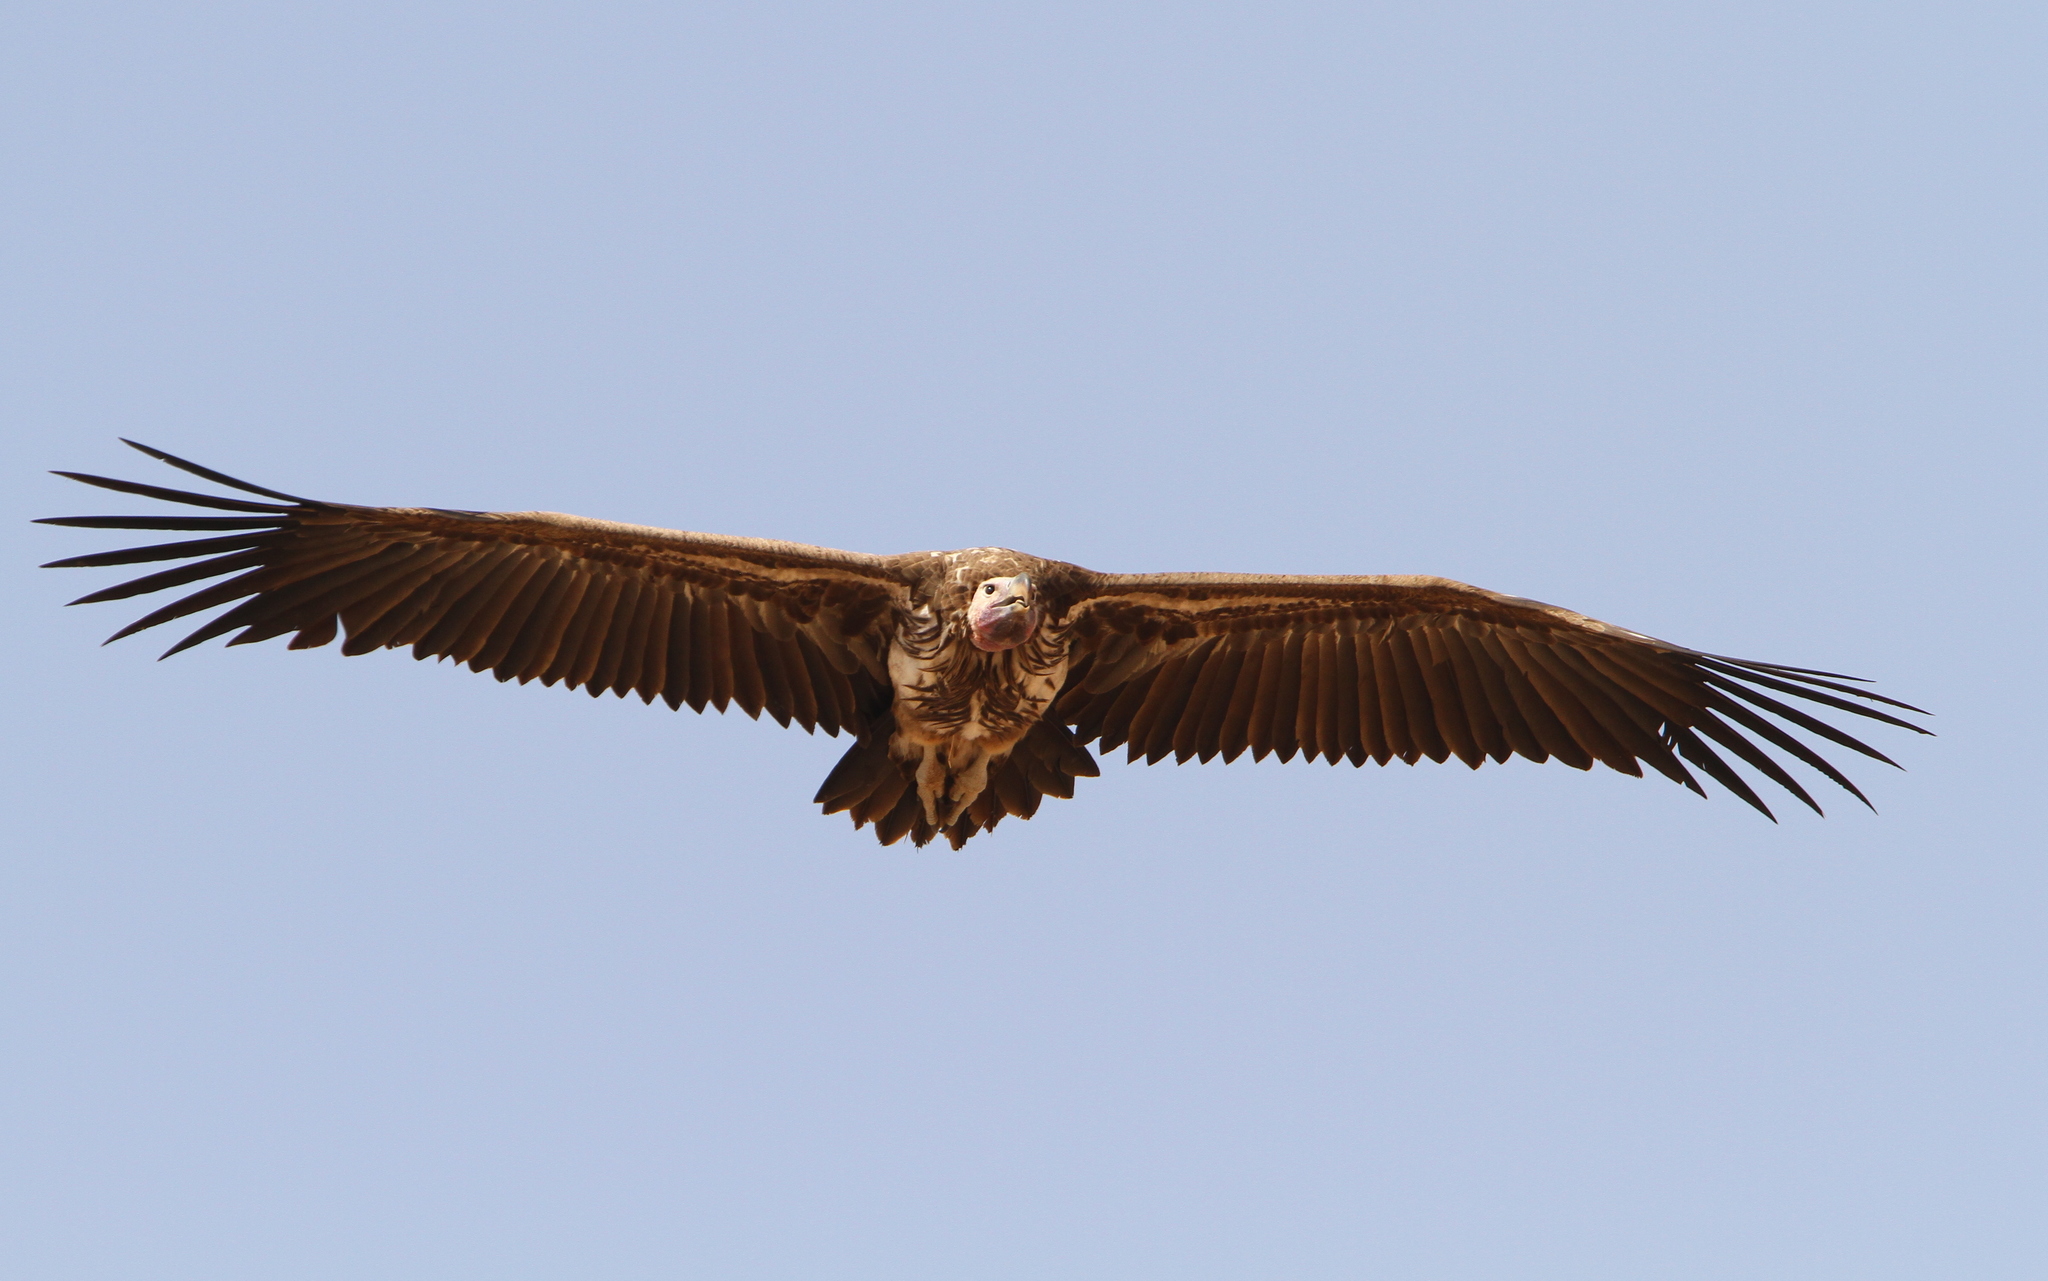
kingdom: Animalia
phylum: Chordata
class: Aves
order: Accipitriformes
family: Accipitridae
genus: Torgos
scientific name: Torgos tracheliotos
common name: Lappet-faced vulture
